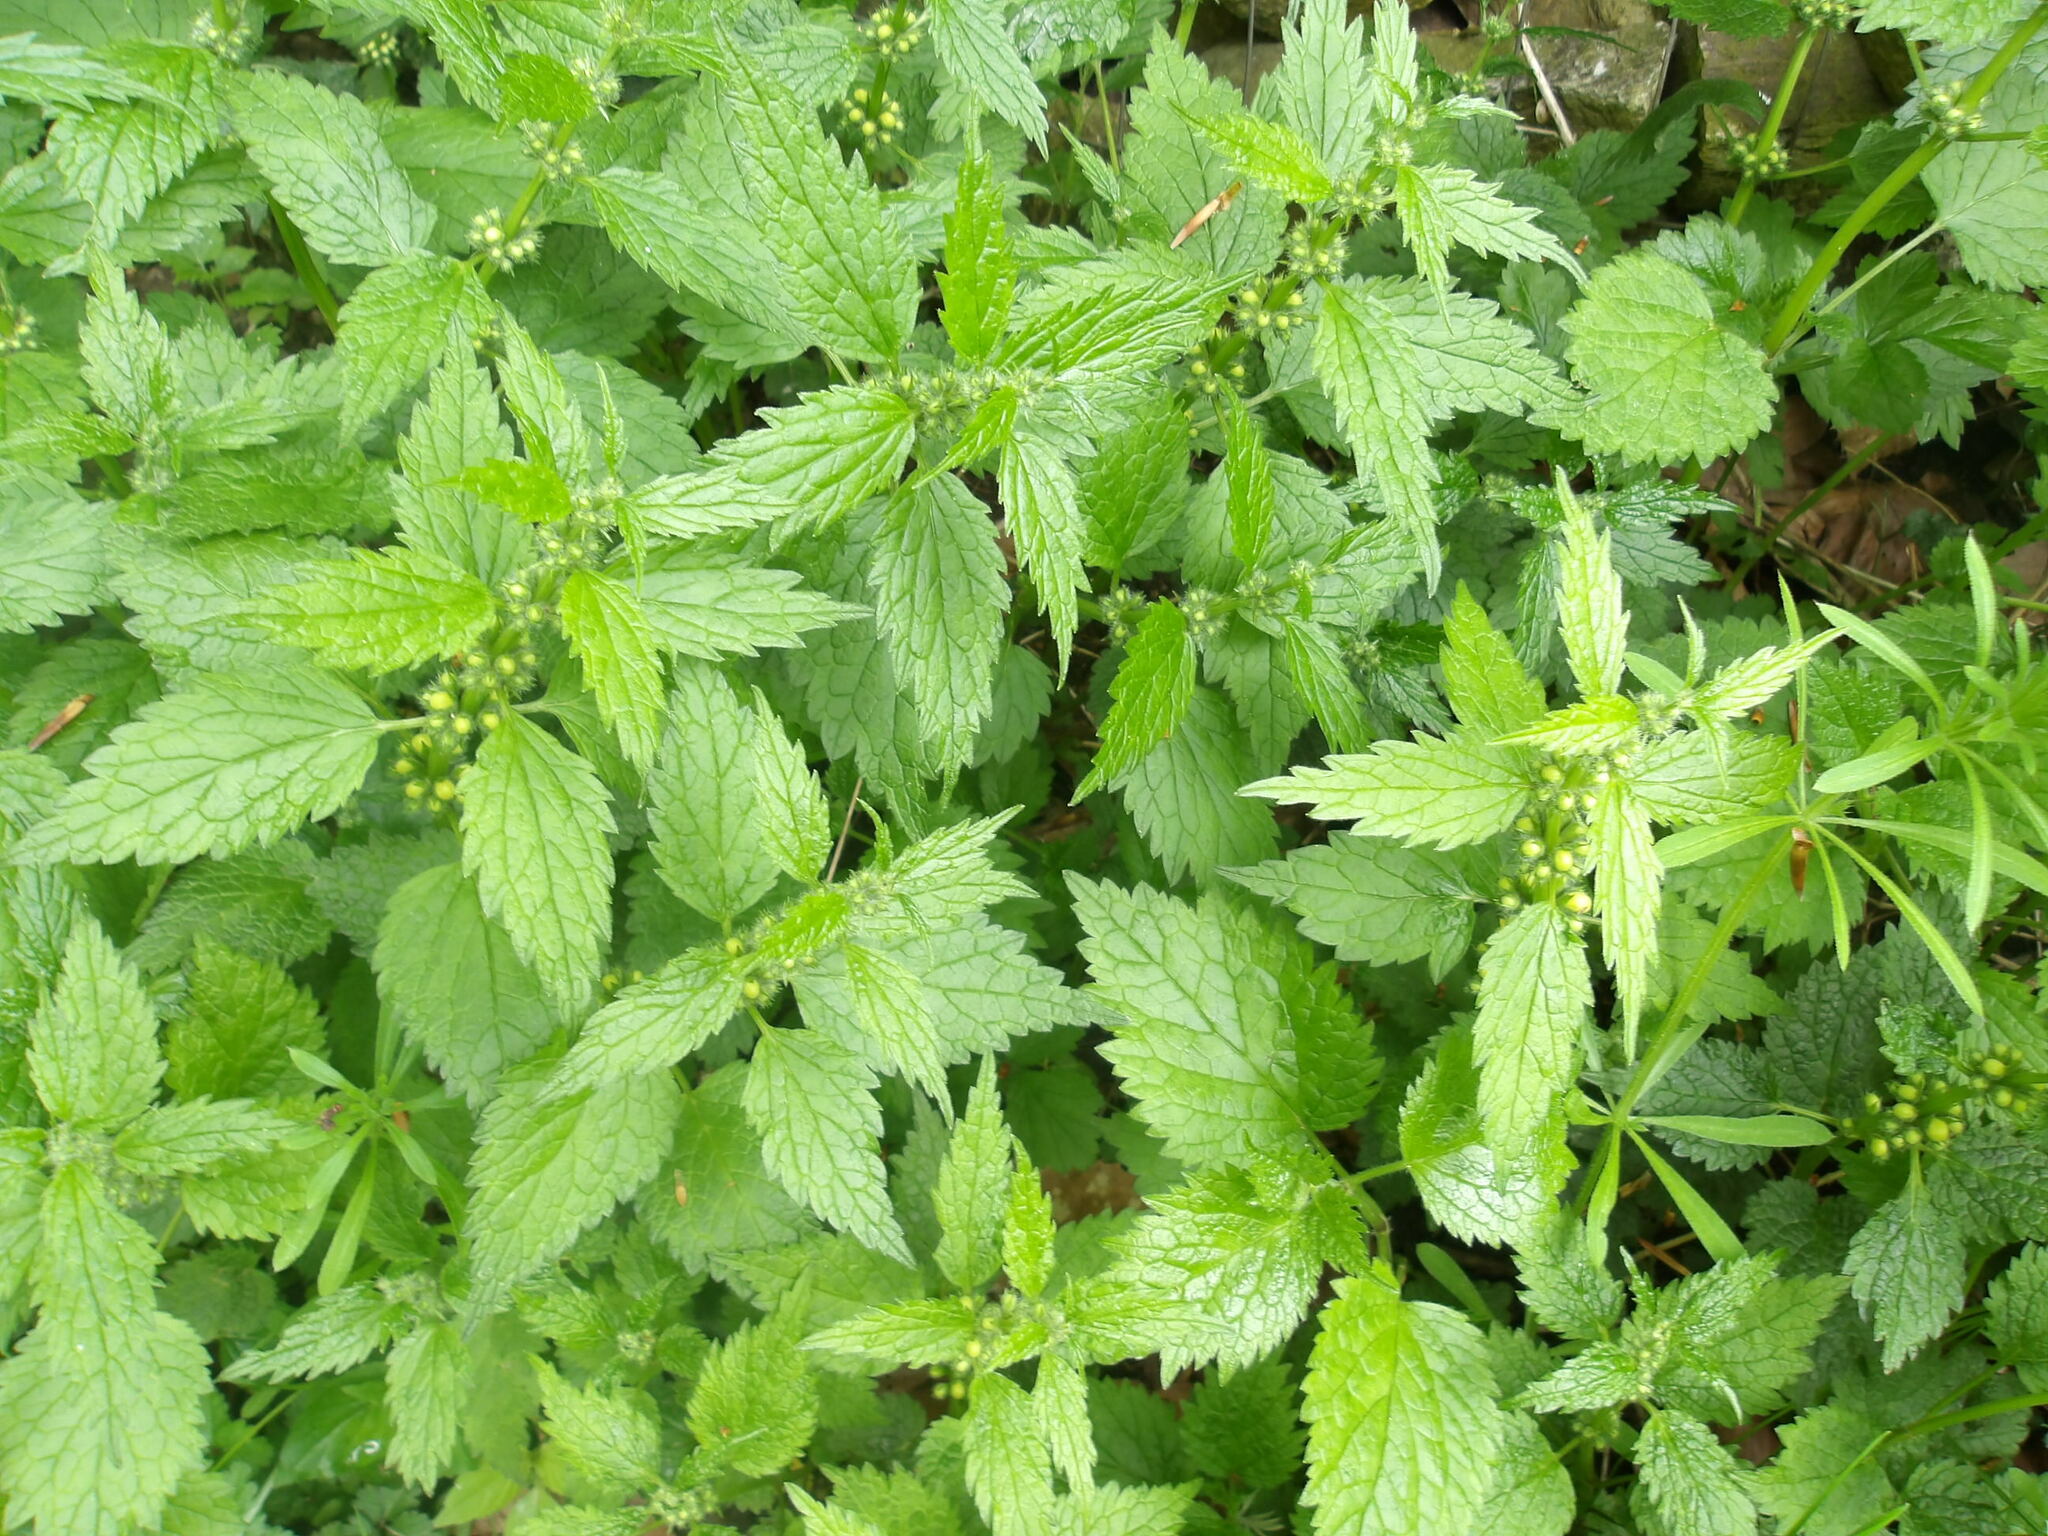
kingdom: Plantae
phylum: Tracheophyta
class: Magnoliopsida
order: Lamiales
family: Lamiaceae
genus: Lamium
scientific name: Lamium galeobdolon
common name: Yellow archangel
